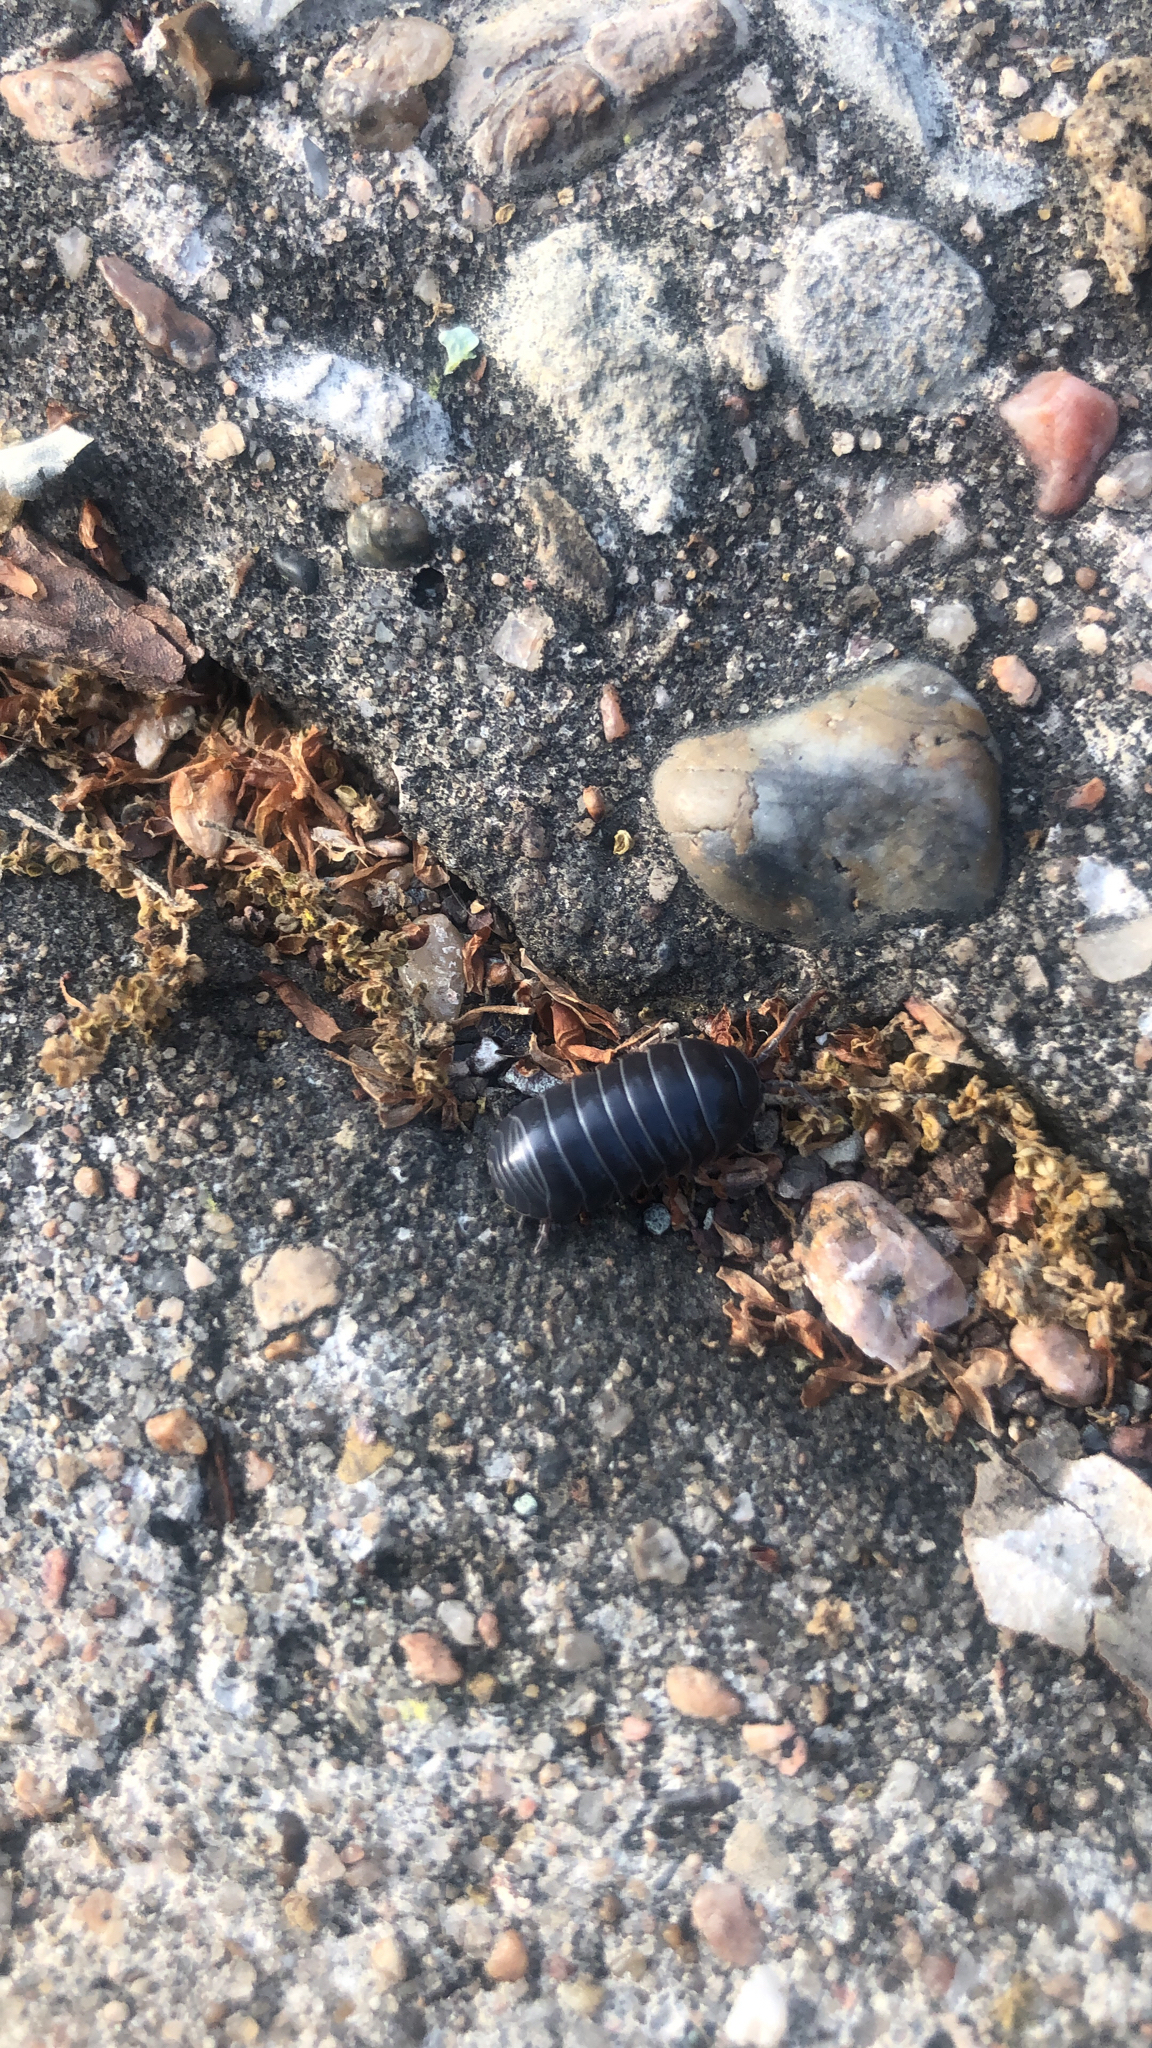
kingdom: Animalia
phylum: Arthropoda
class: Malacostraca
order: Isopoda
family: Armadillidiidae
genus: Armadillidium
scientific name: Armadillidium vulgare
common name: Common pill woodlouse
